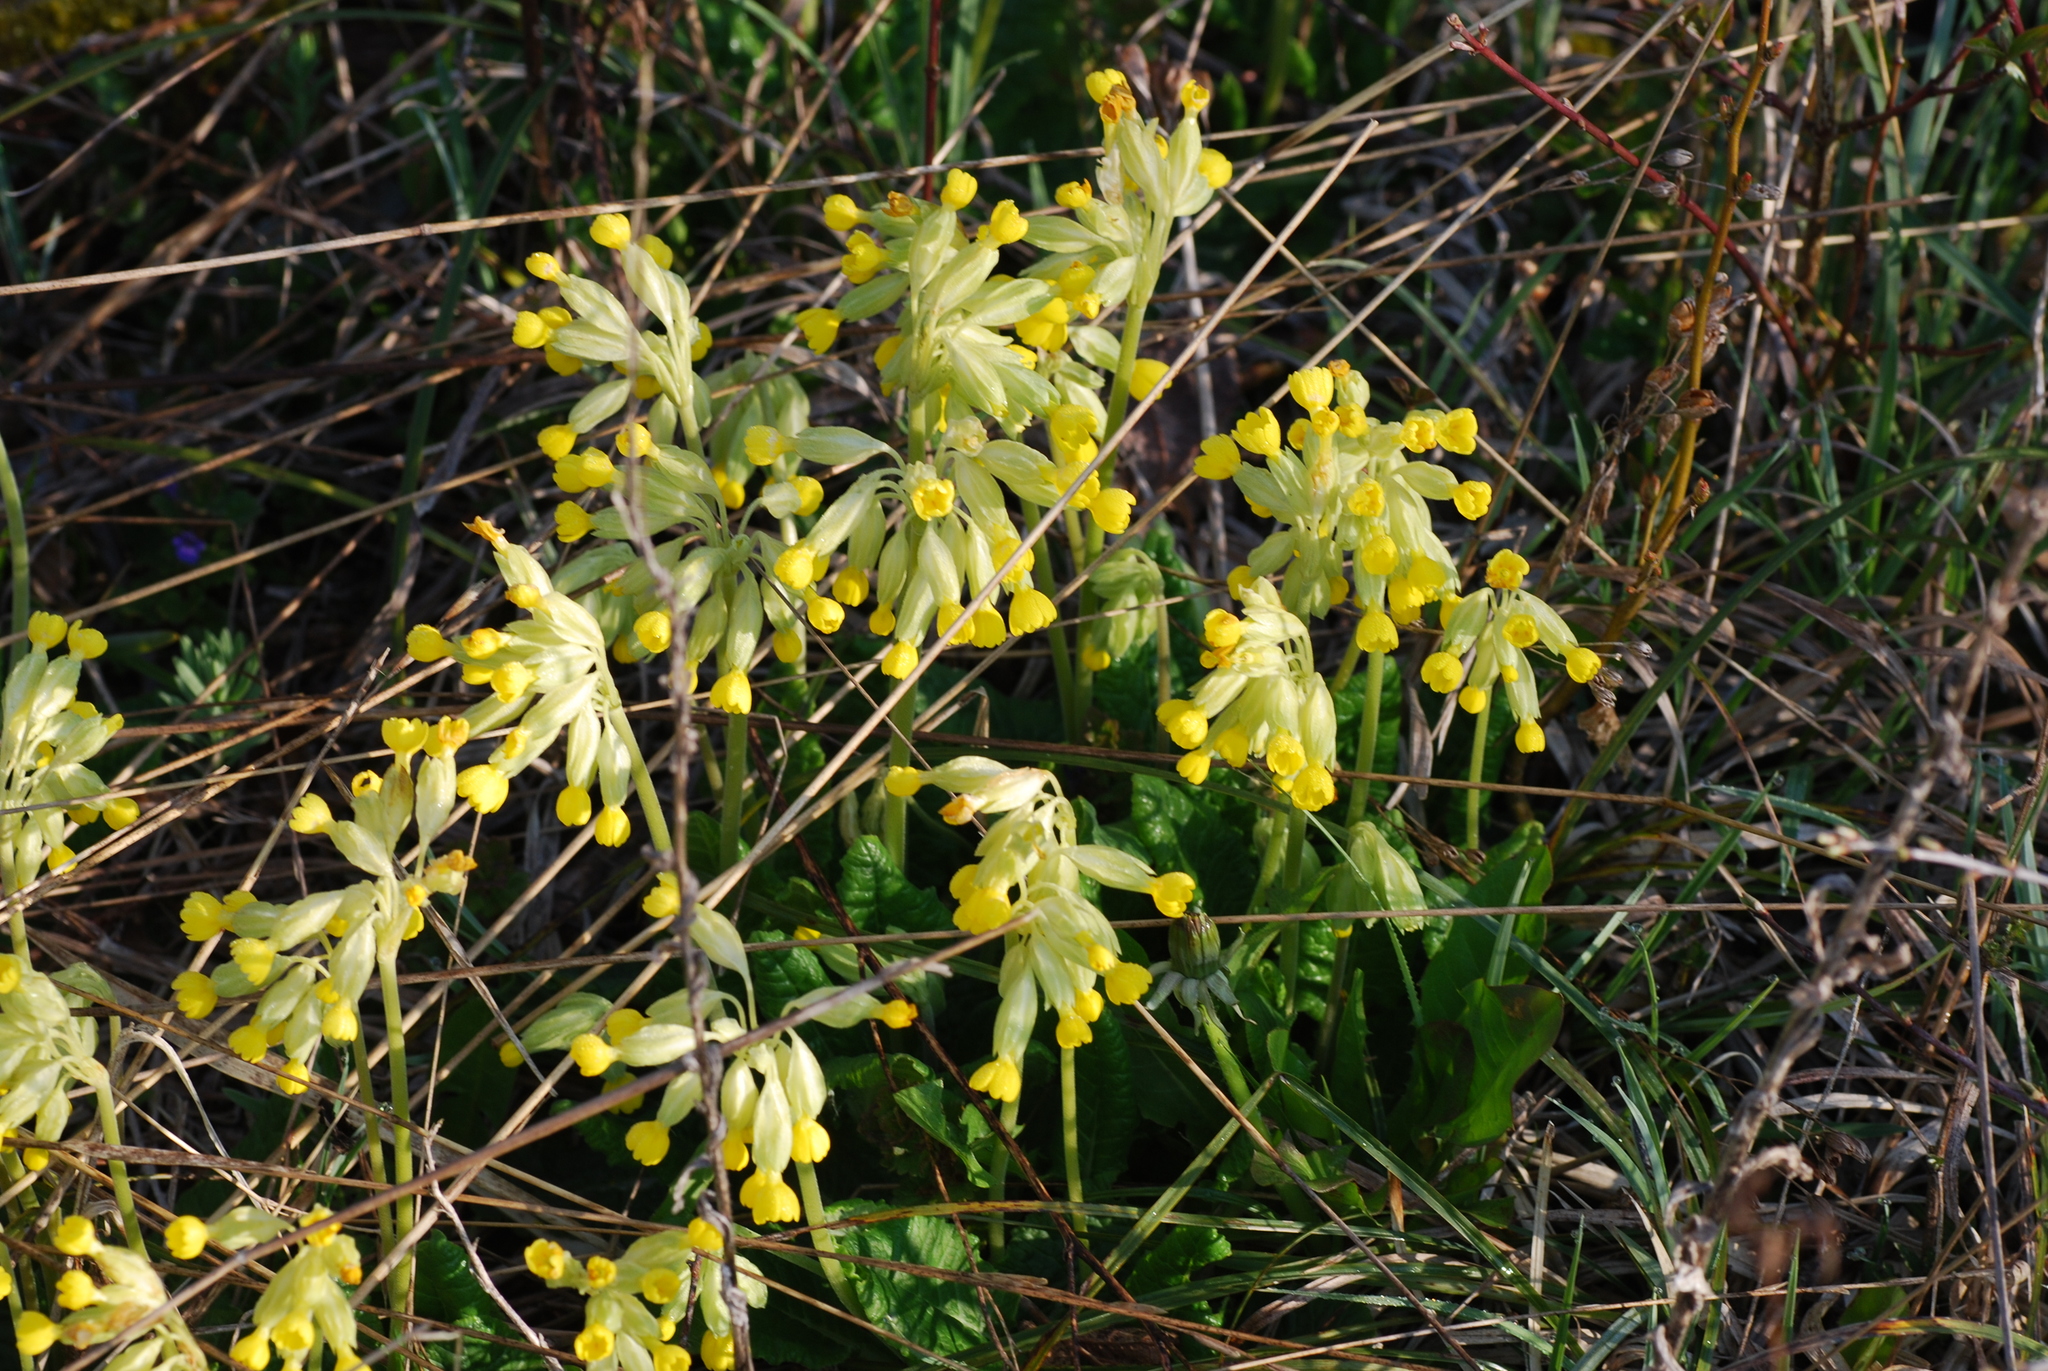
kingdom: Plantae
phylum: Tracheophyta
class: Magnoliopsida
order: Ericales
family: Primulaceae
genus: Primula
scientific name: Primula veris
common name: Cowslip
